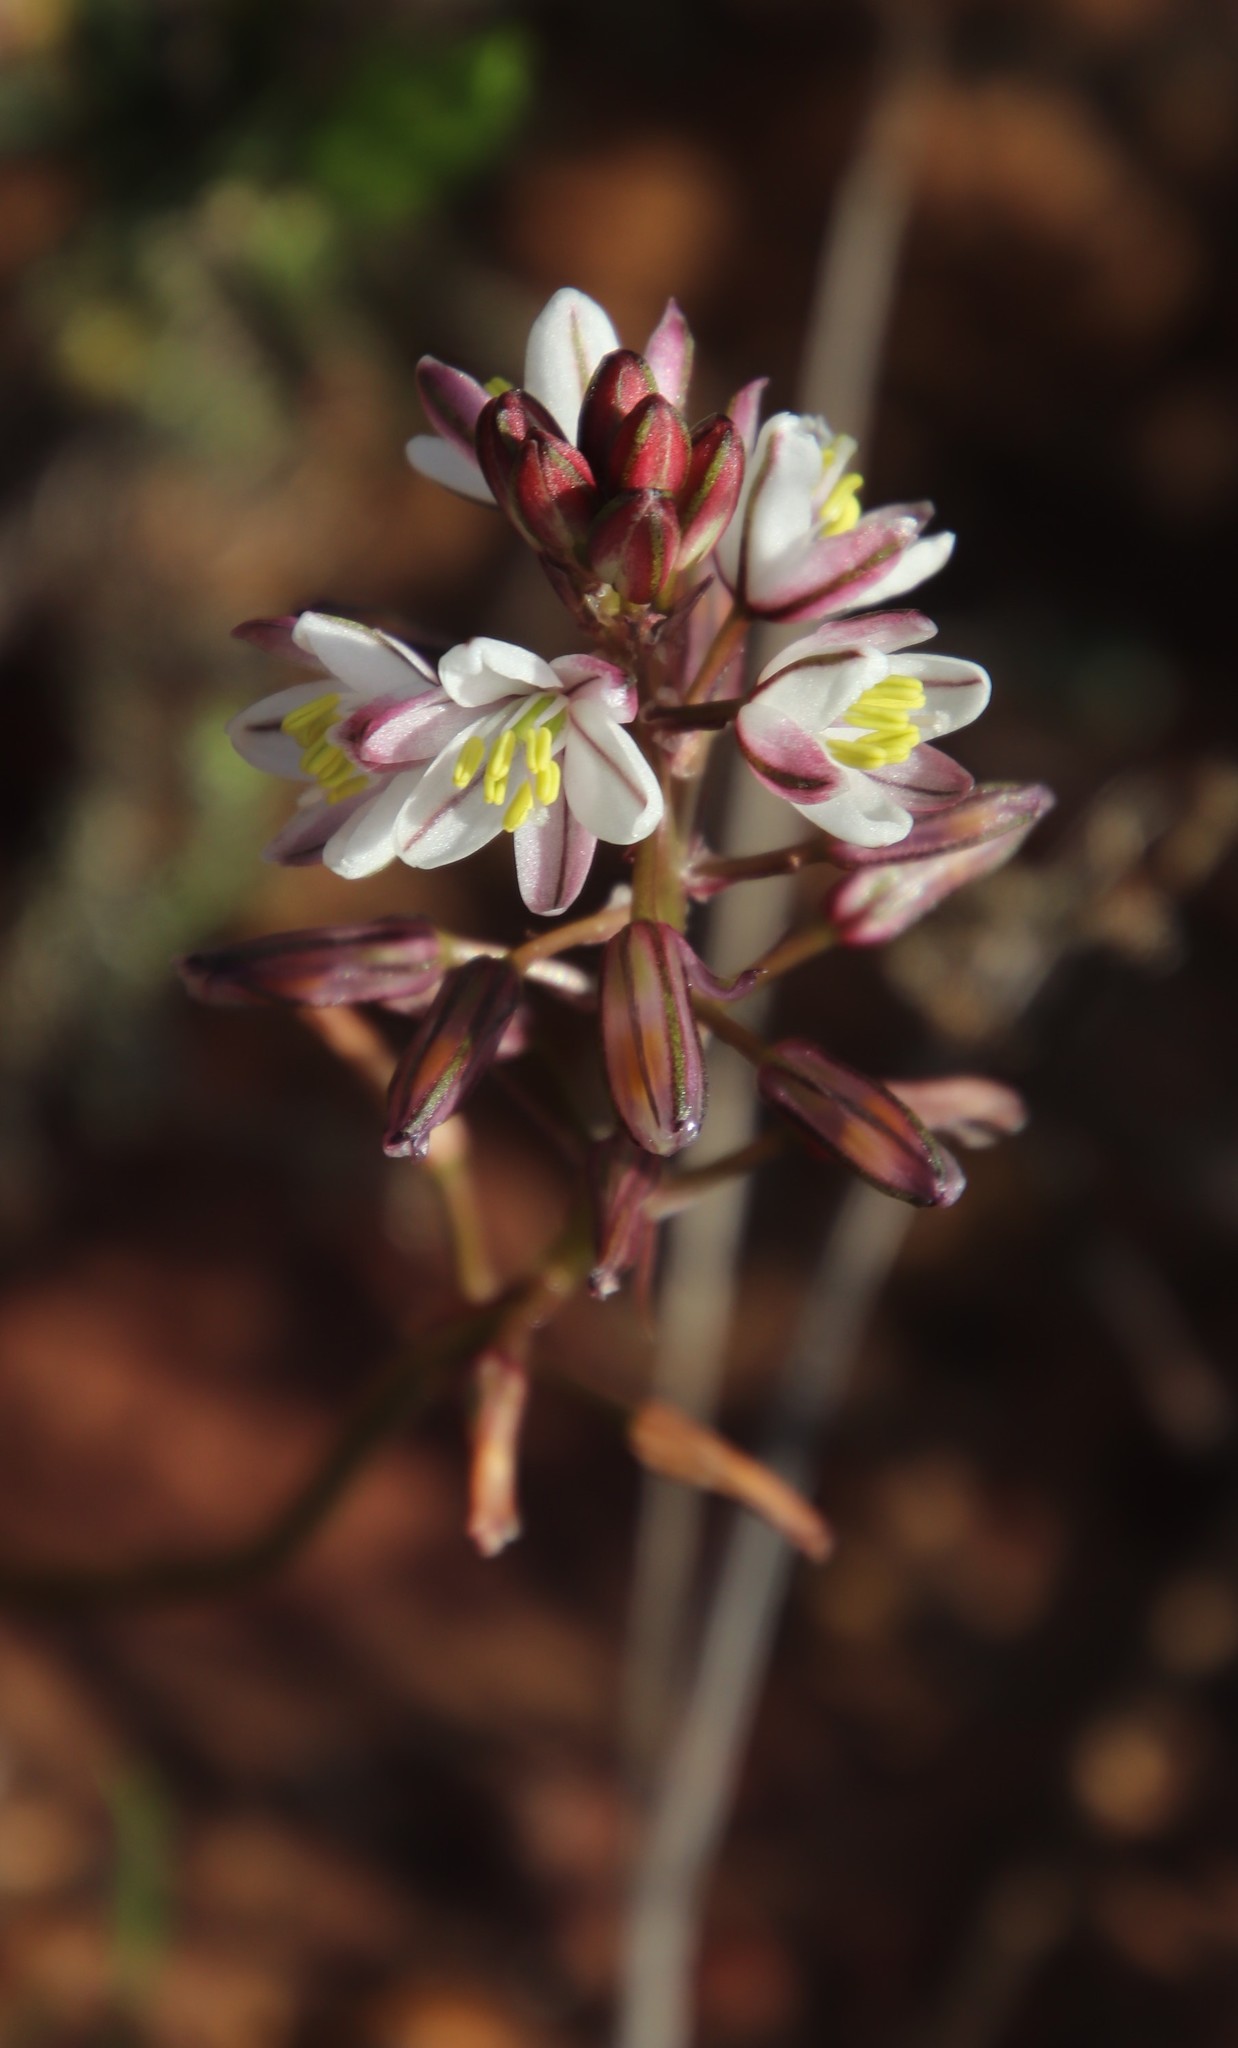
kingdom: Plantae
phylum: Tracheophyta
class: Liliopsida
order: Asparagales
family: Asparagaceae
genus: Drimia
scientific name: Drimia exuviata
